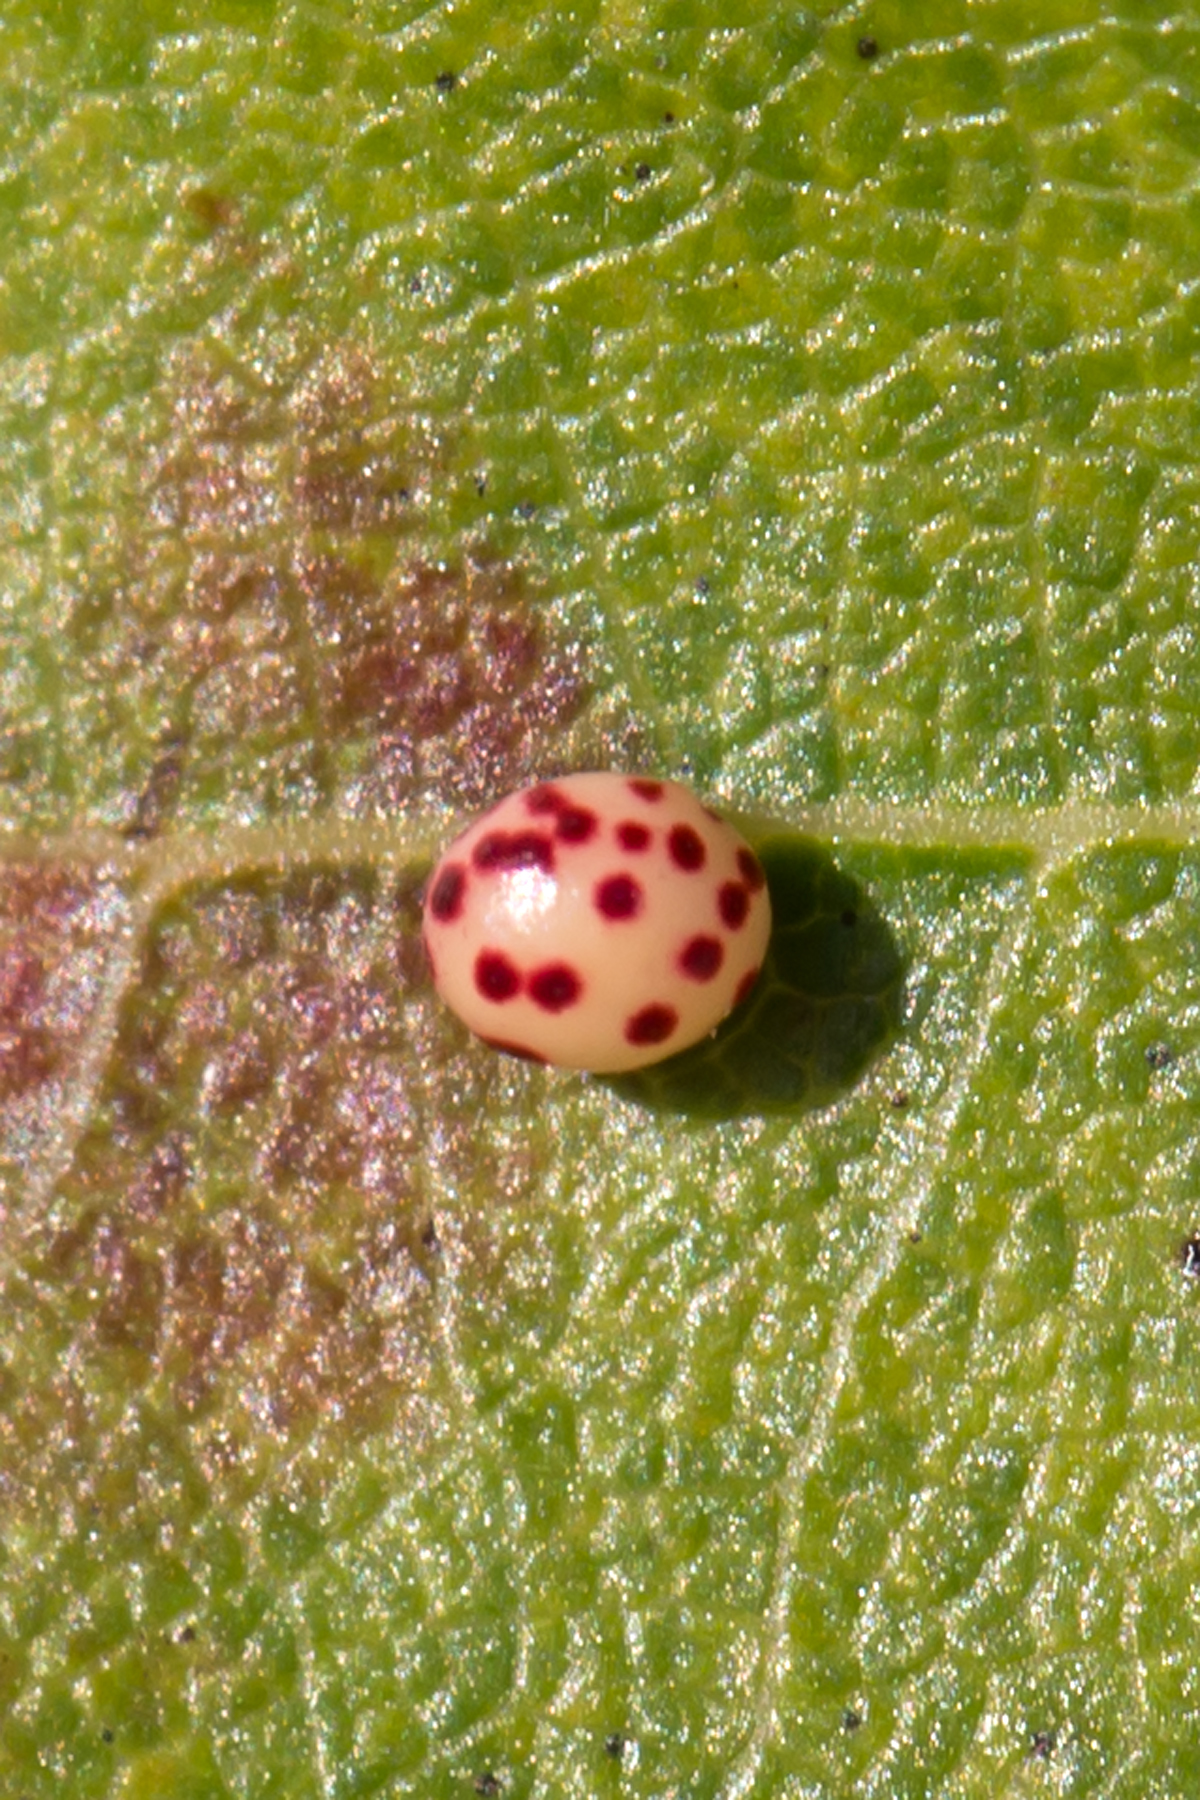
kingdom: Animalia
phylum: Arthropoda
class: Insecta
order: Hymenoptera
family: Cynipidae
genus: Zopheroteras
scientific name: Zopheroteras
